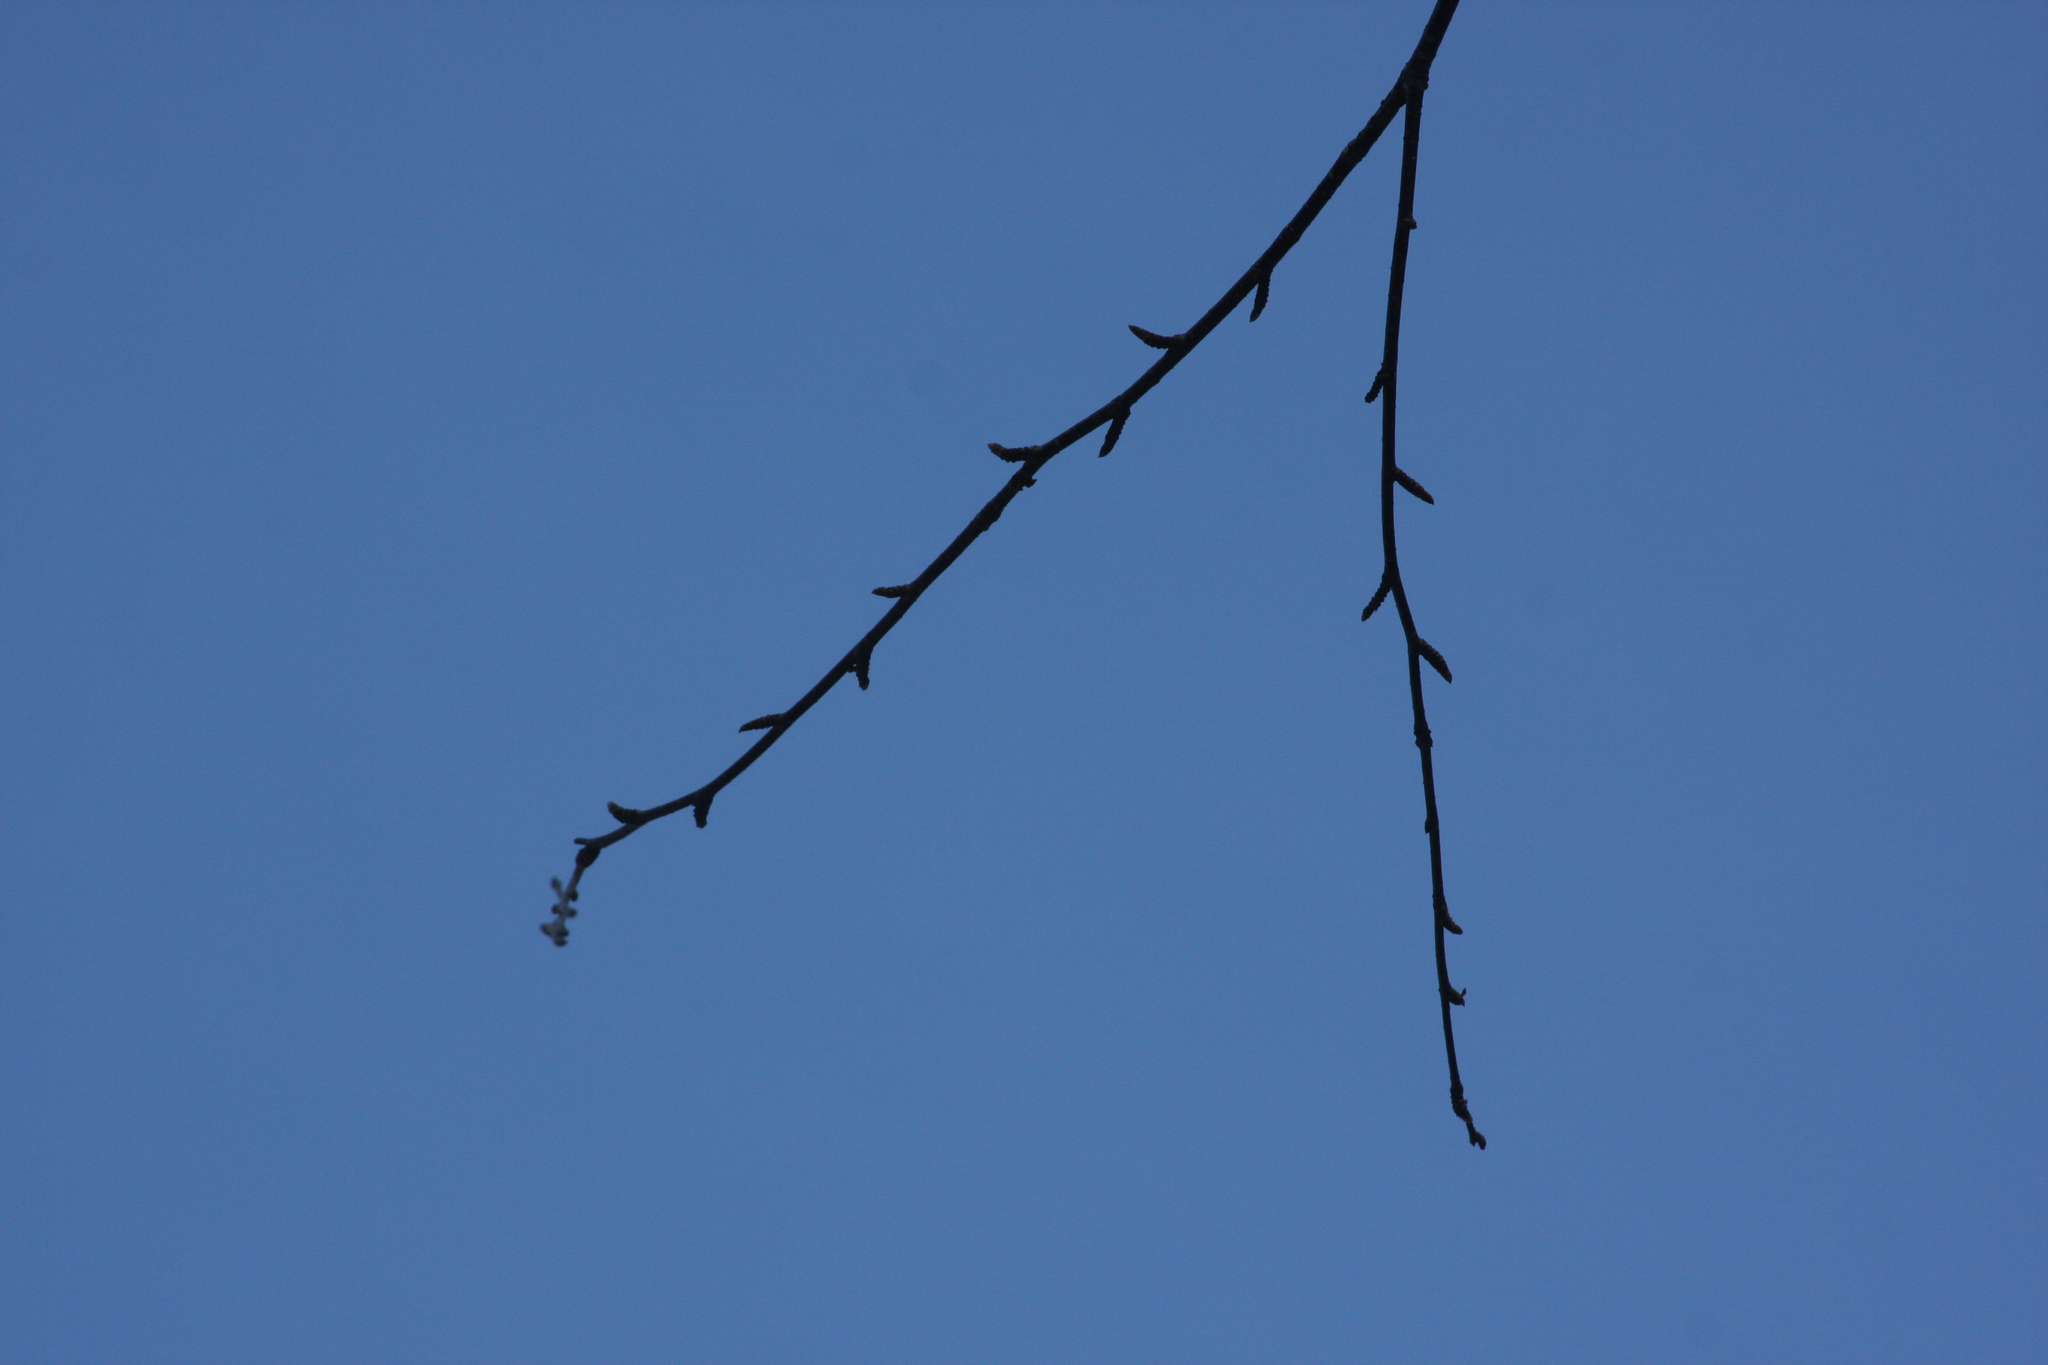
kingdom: Plantae
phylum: Tracheophyta
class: Magnoliopsida
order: Fagales
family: Betulaceae
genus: Betula
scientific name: Betula alleghaniensis
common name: Yellow birch
